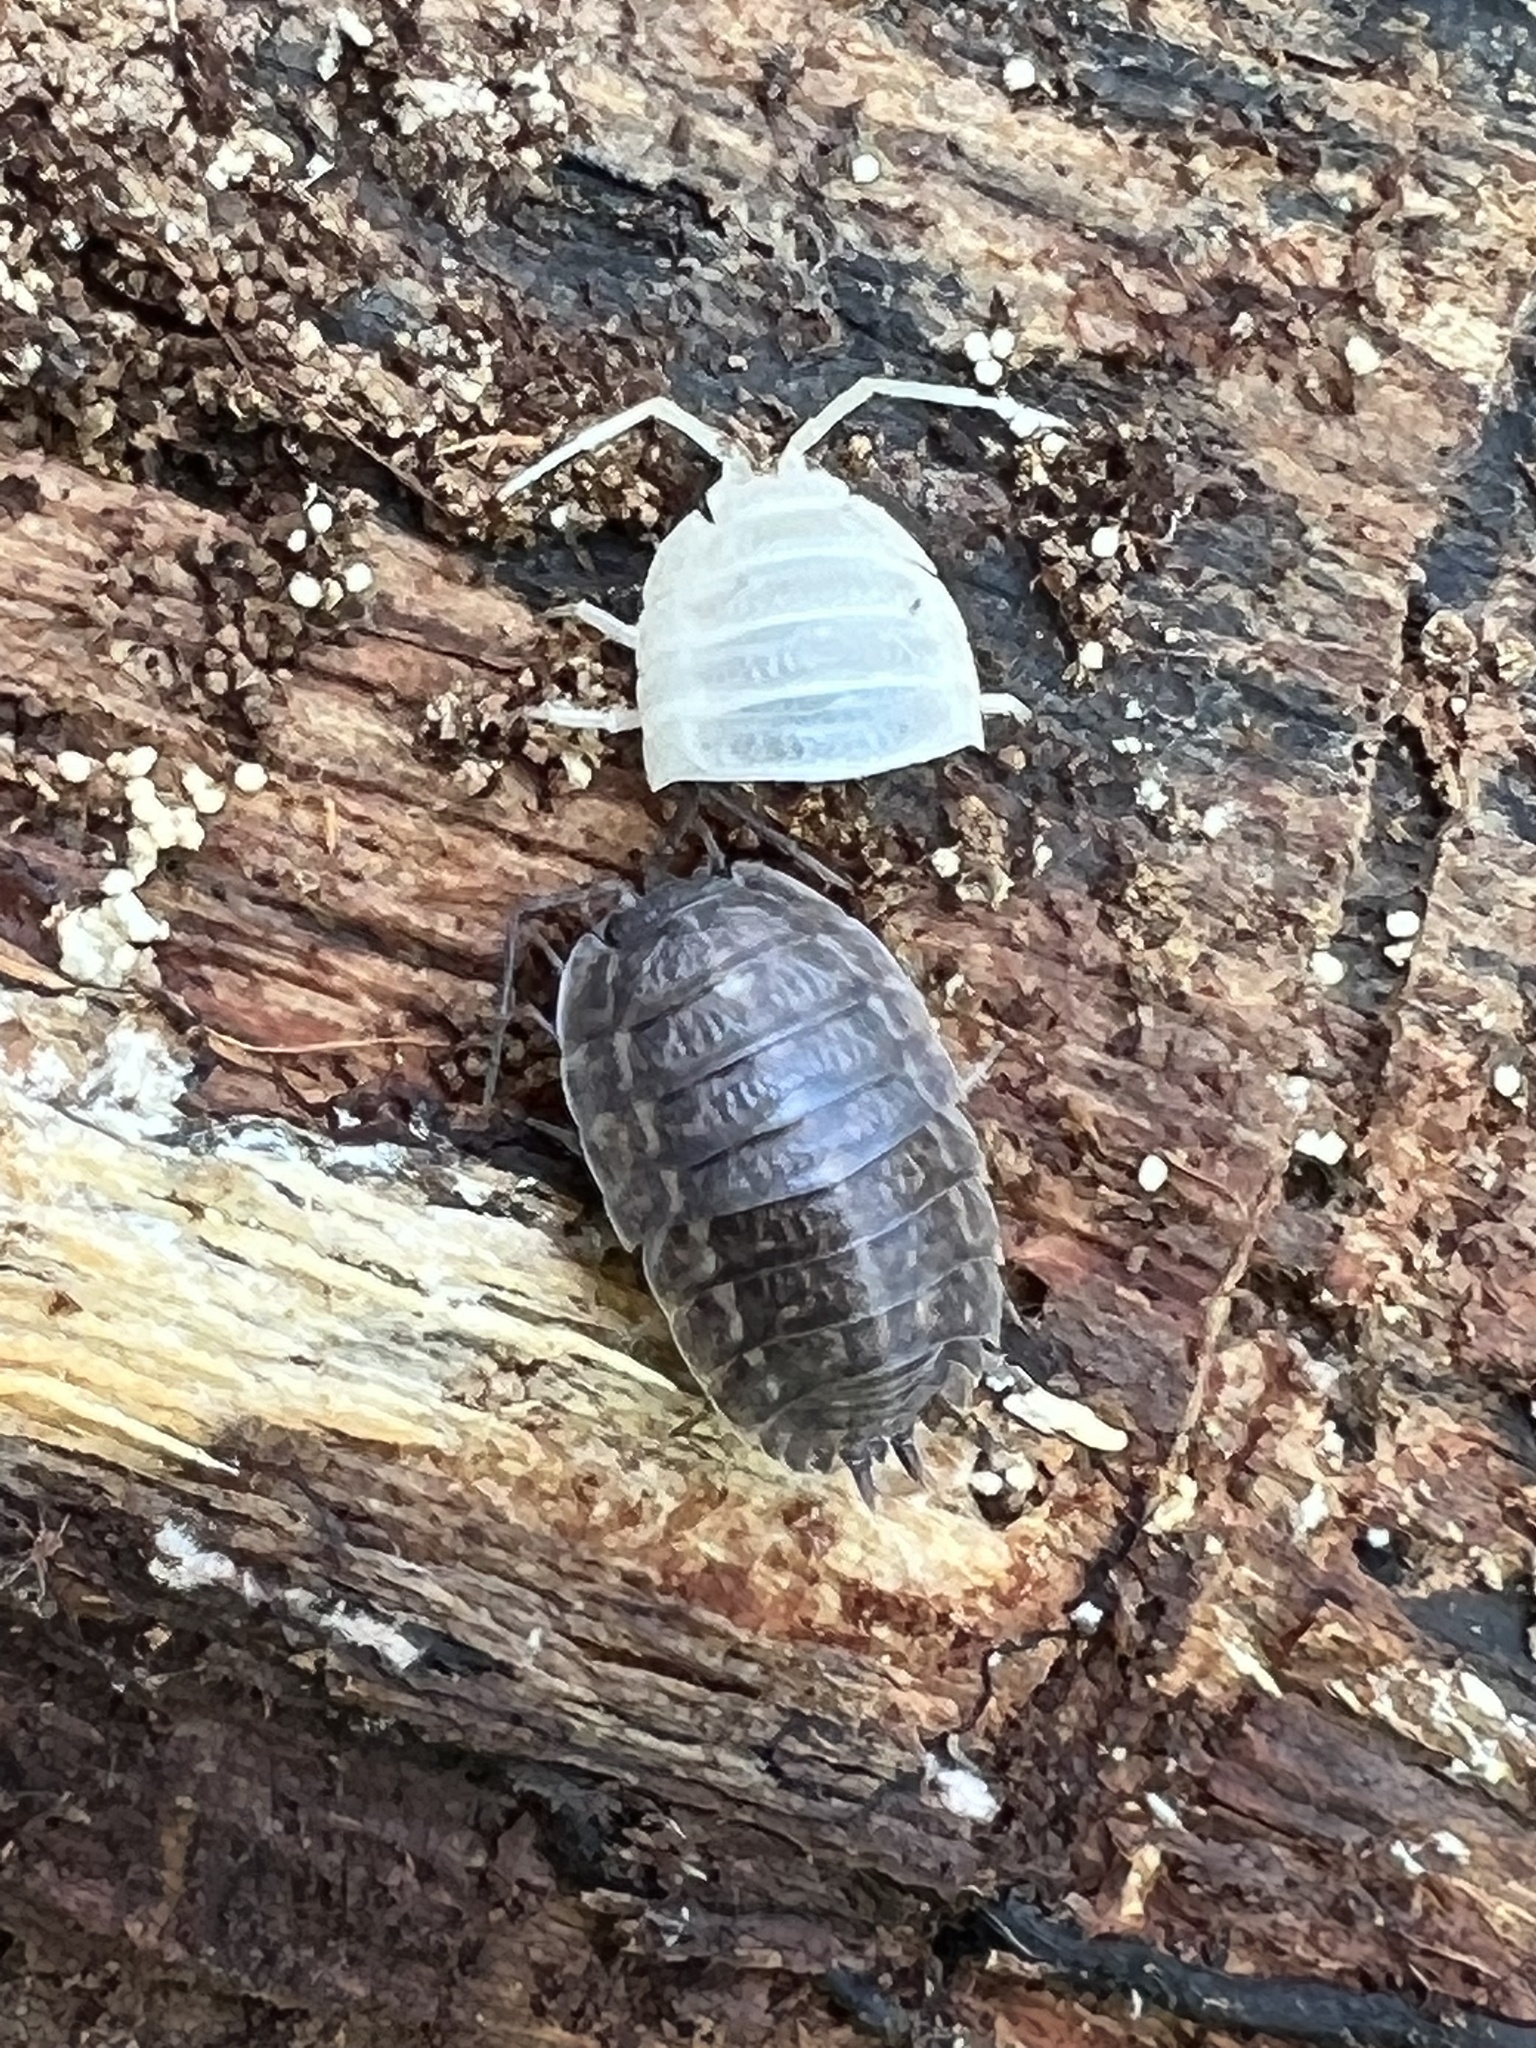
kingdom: Animalia
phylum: Arthropoda
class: Malacostraca
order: Isopoda
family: Trachelipodidae
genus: Trachelipus
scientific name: Trachelipus rathkii
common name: Isopod
